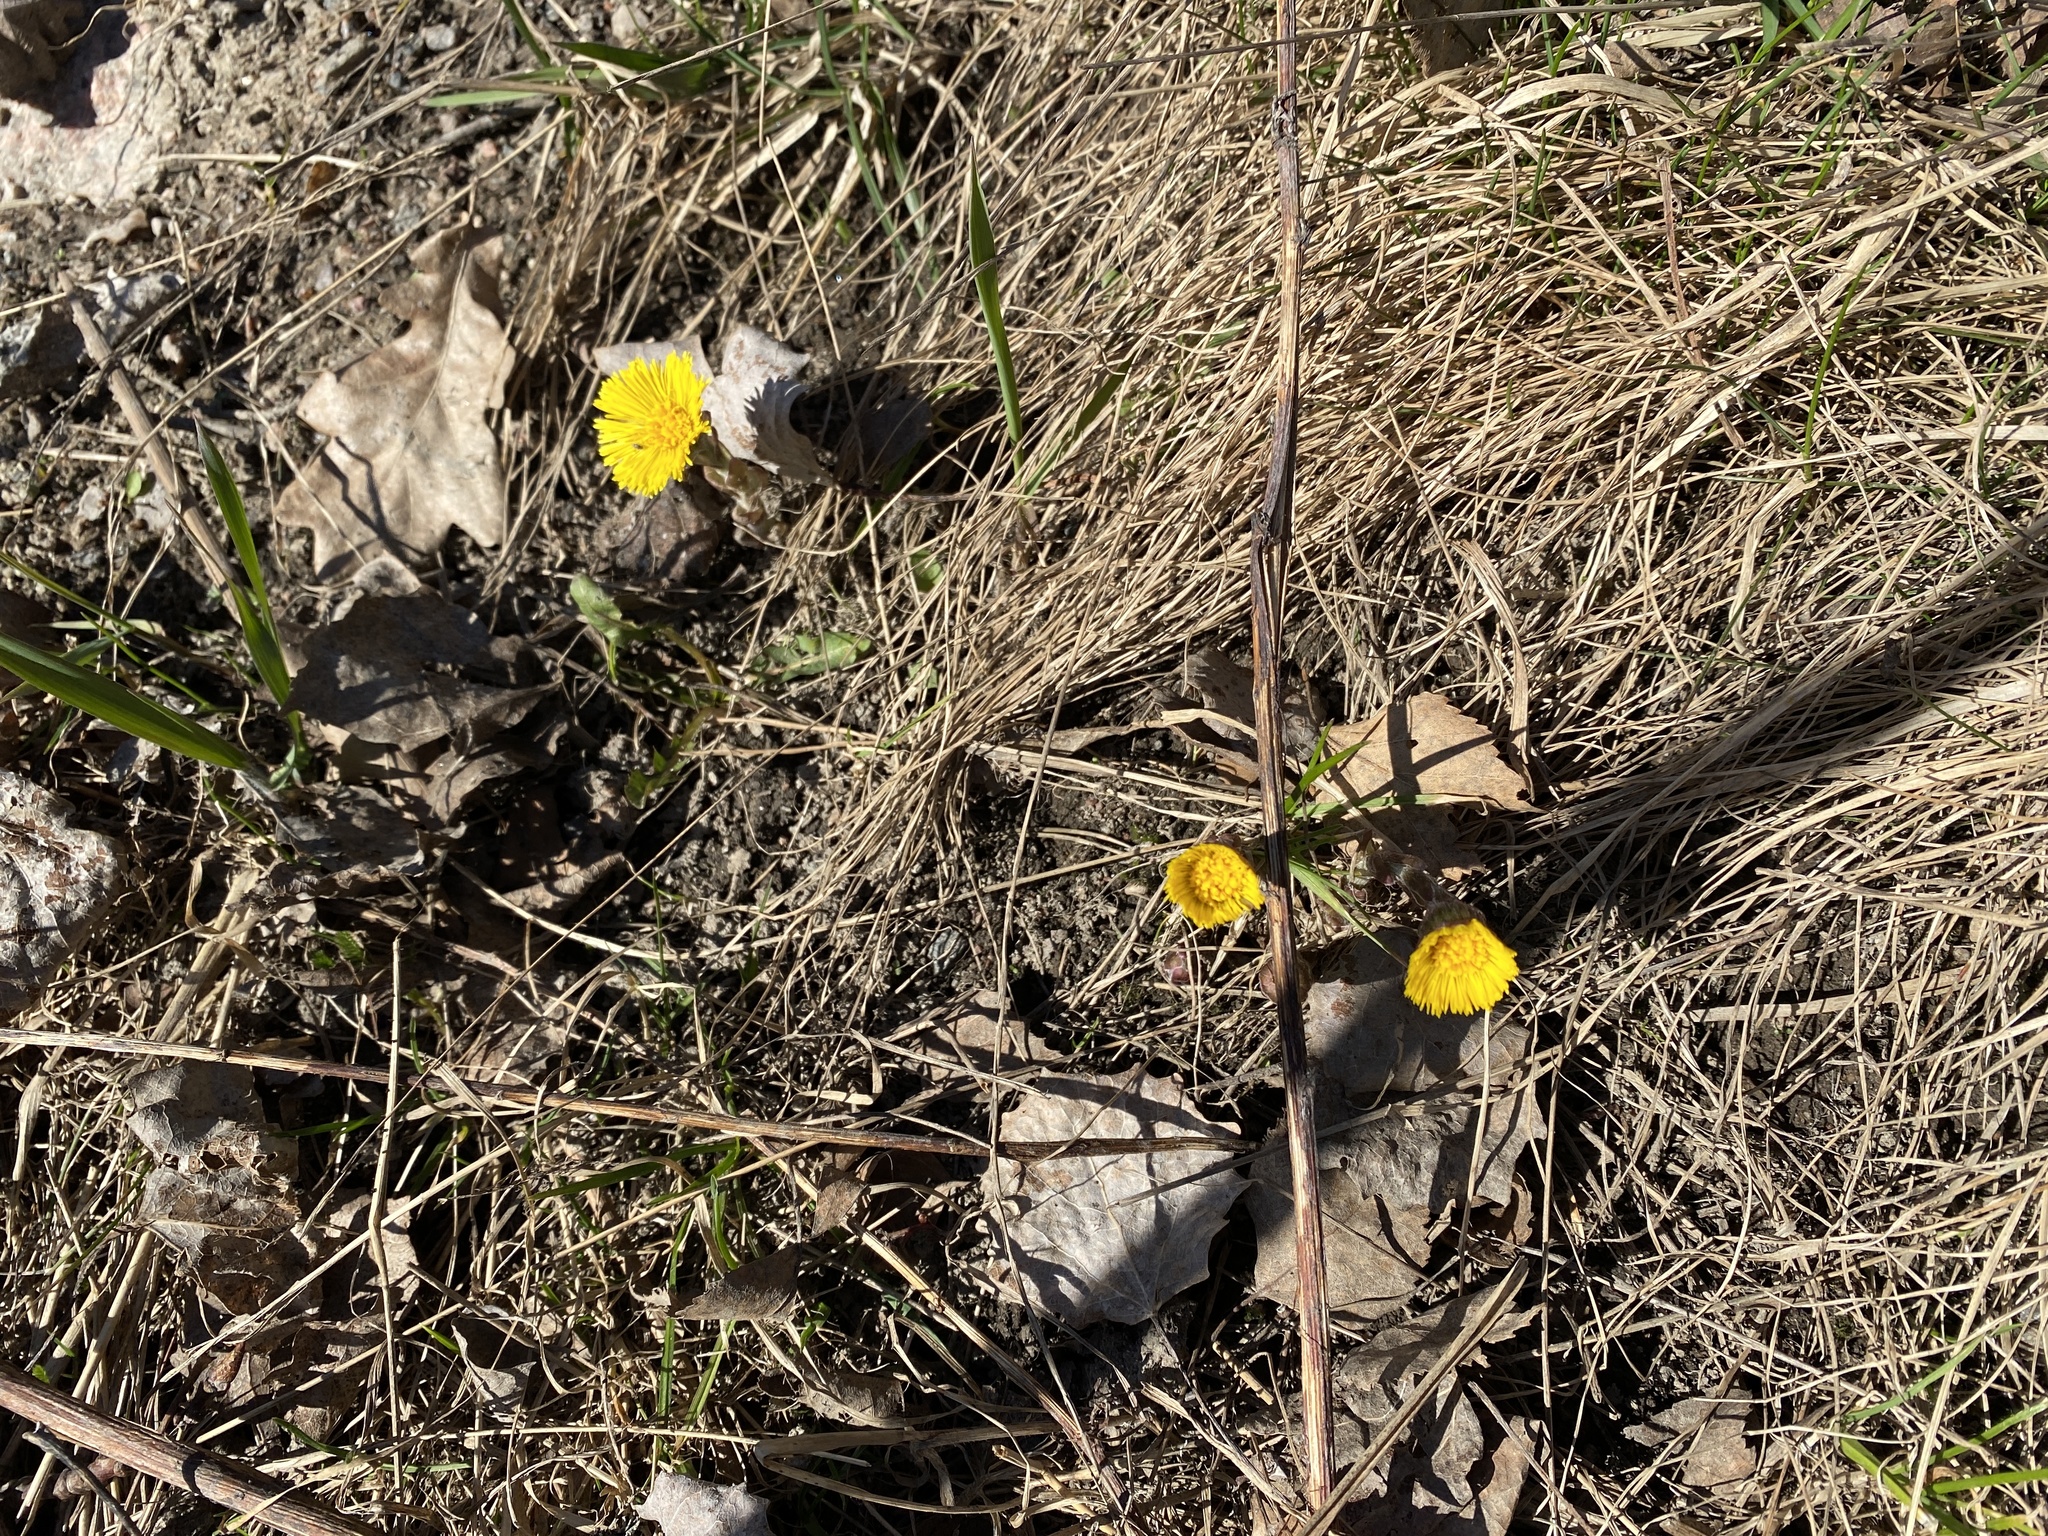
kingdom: Plantae
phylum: Tracheophyta
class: Magnoliopsida
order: Asterales
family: Asteraceae
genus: Tussilago
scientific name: Tussilago farfara
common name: Coltsfoot
